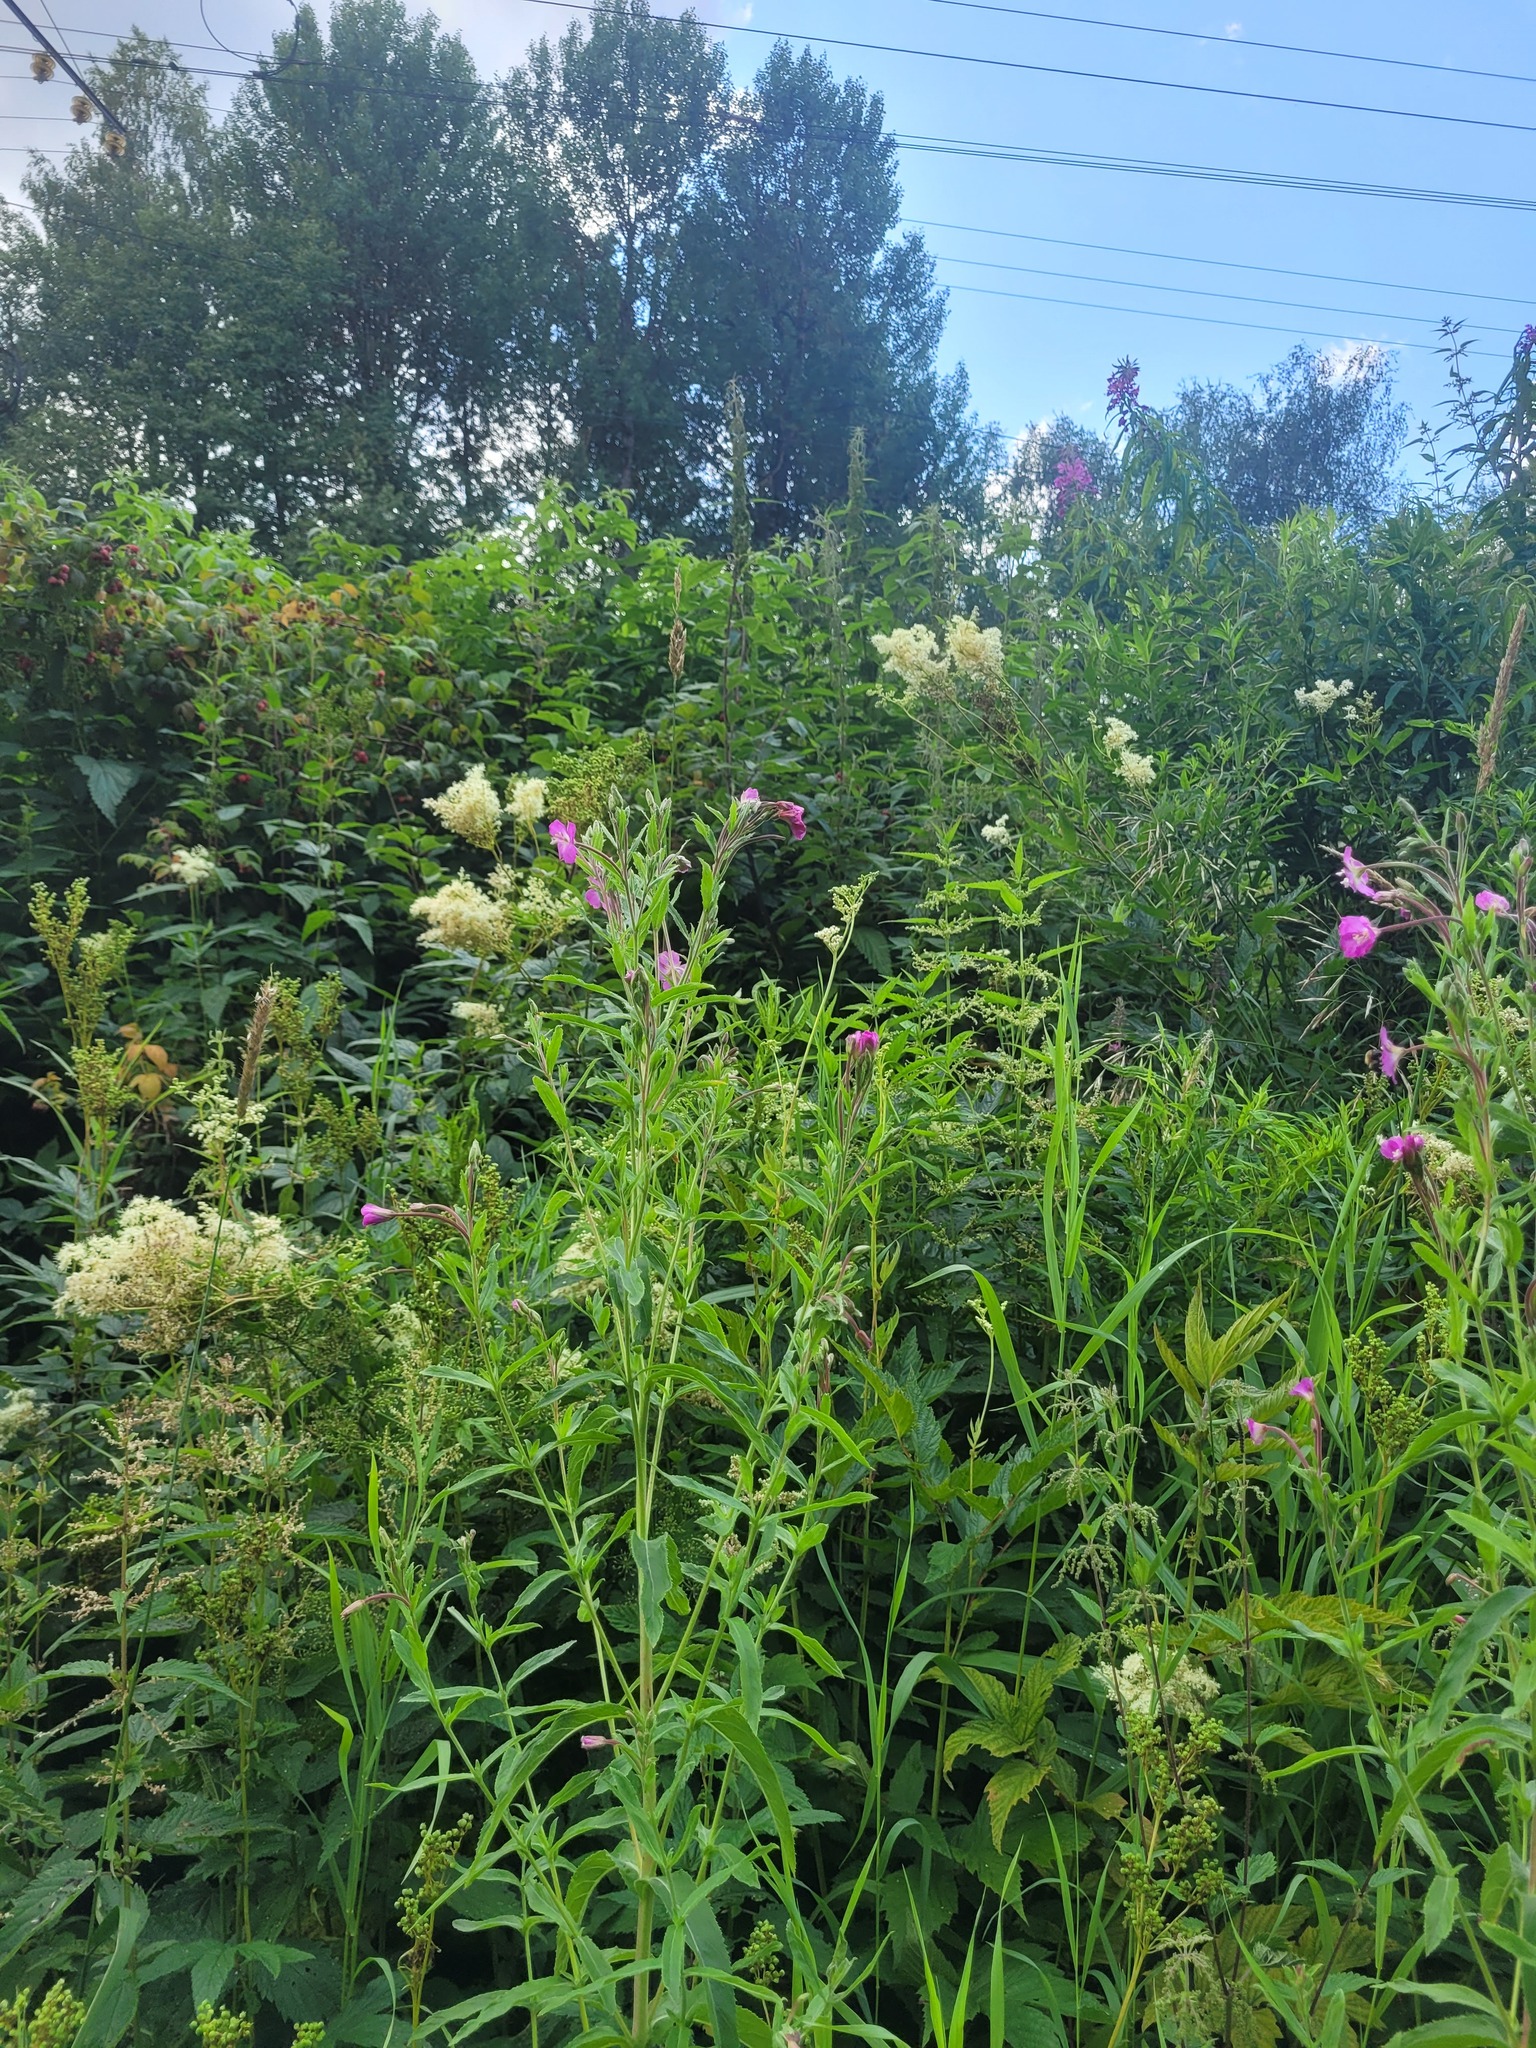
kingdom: Plantae
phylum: Tracheophyta
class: Magnoliopsida
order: Myrtales
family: Onagraceae
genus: Epilobium
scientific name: Epilobium hirsutum
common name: Great willowherb
